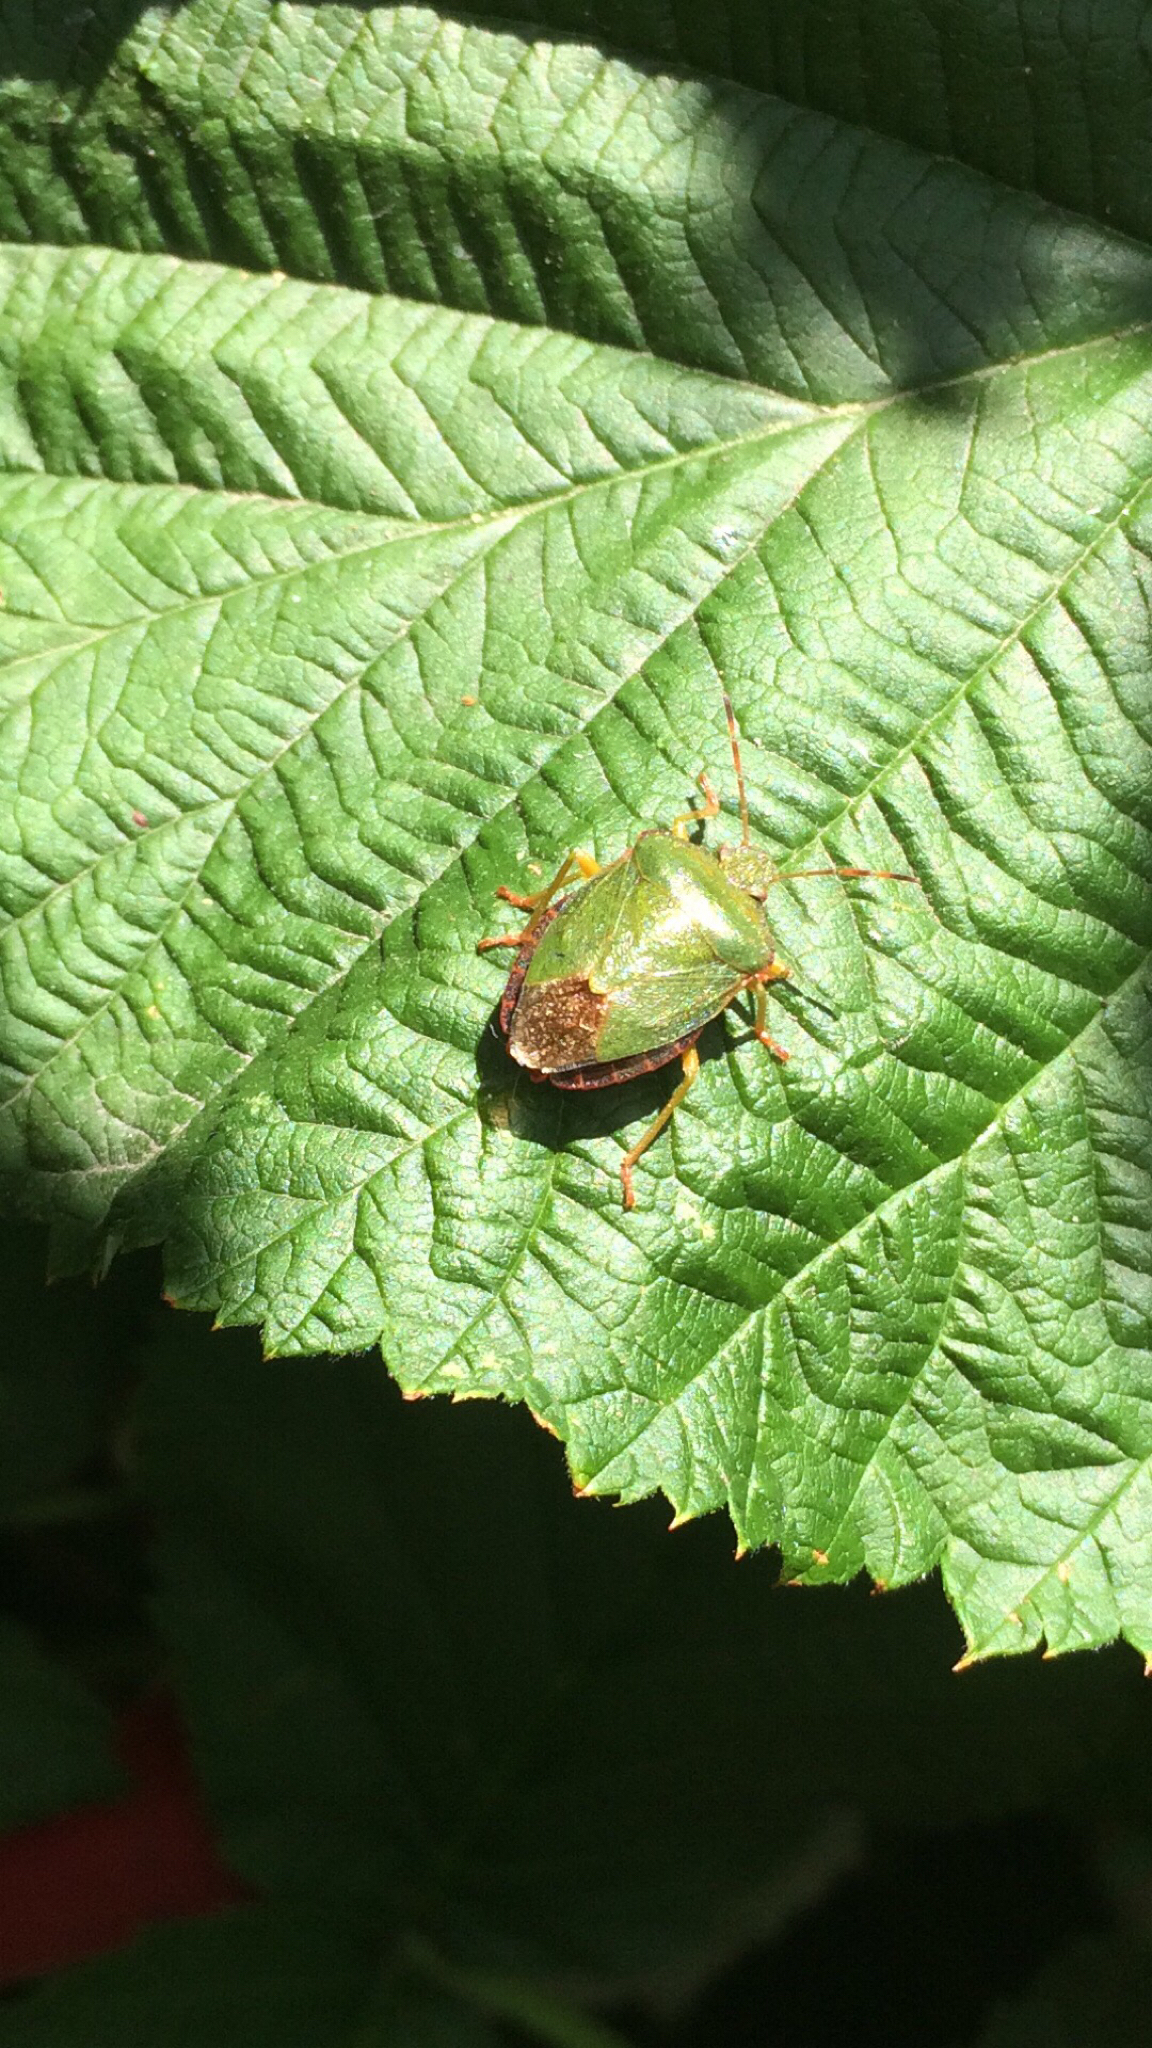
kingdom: Animalia
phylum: Arthropoda
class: Insecta
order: Hemiptera
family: Pentatomidae
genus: Palomena
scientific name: Palomena prasina
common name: Green shieldbug
